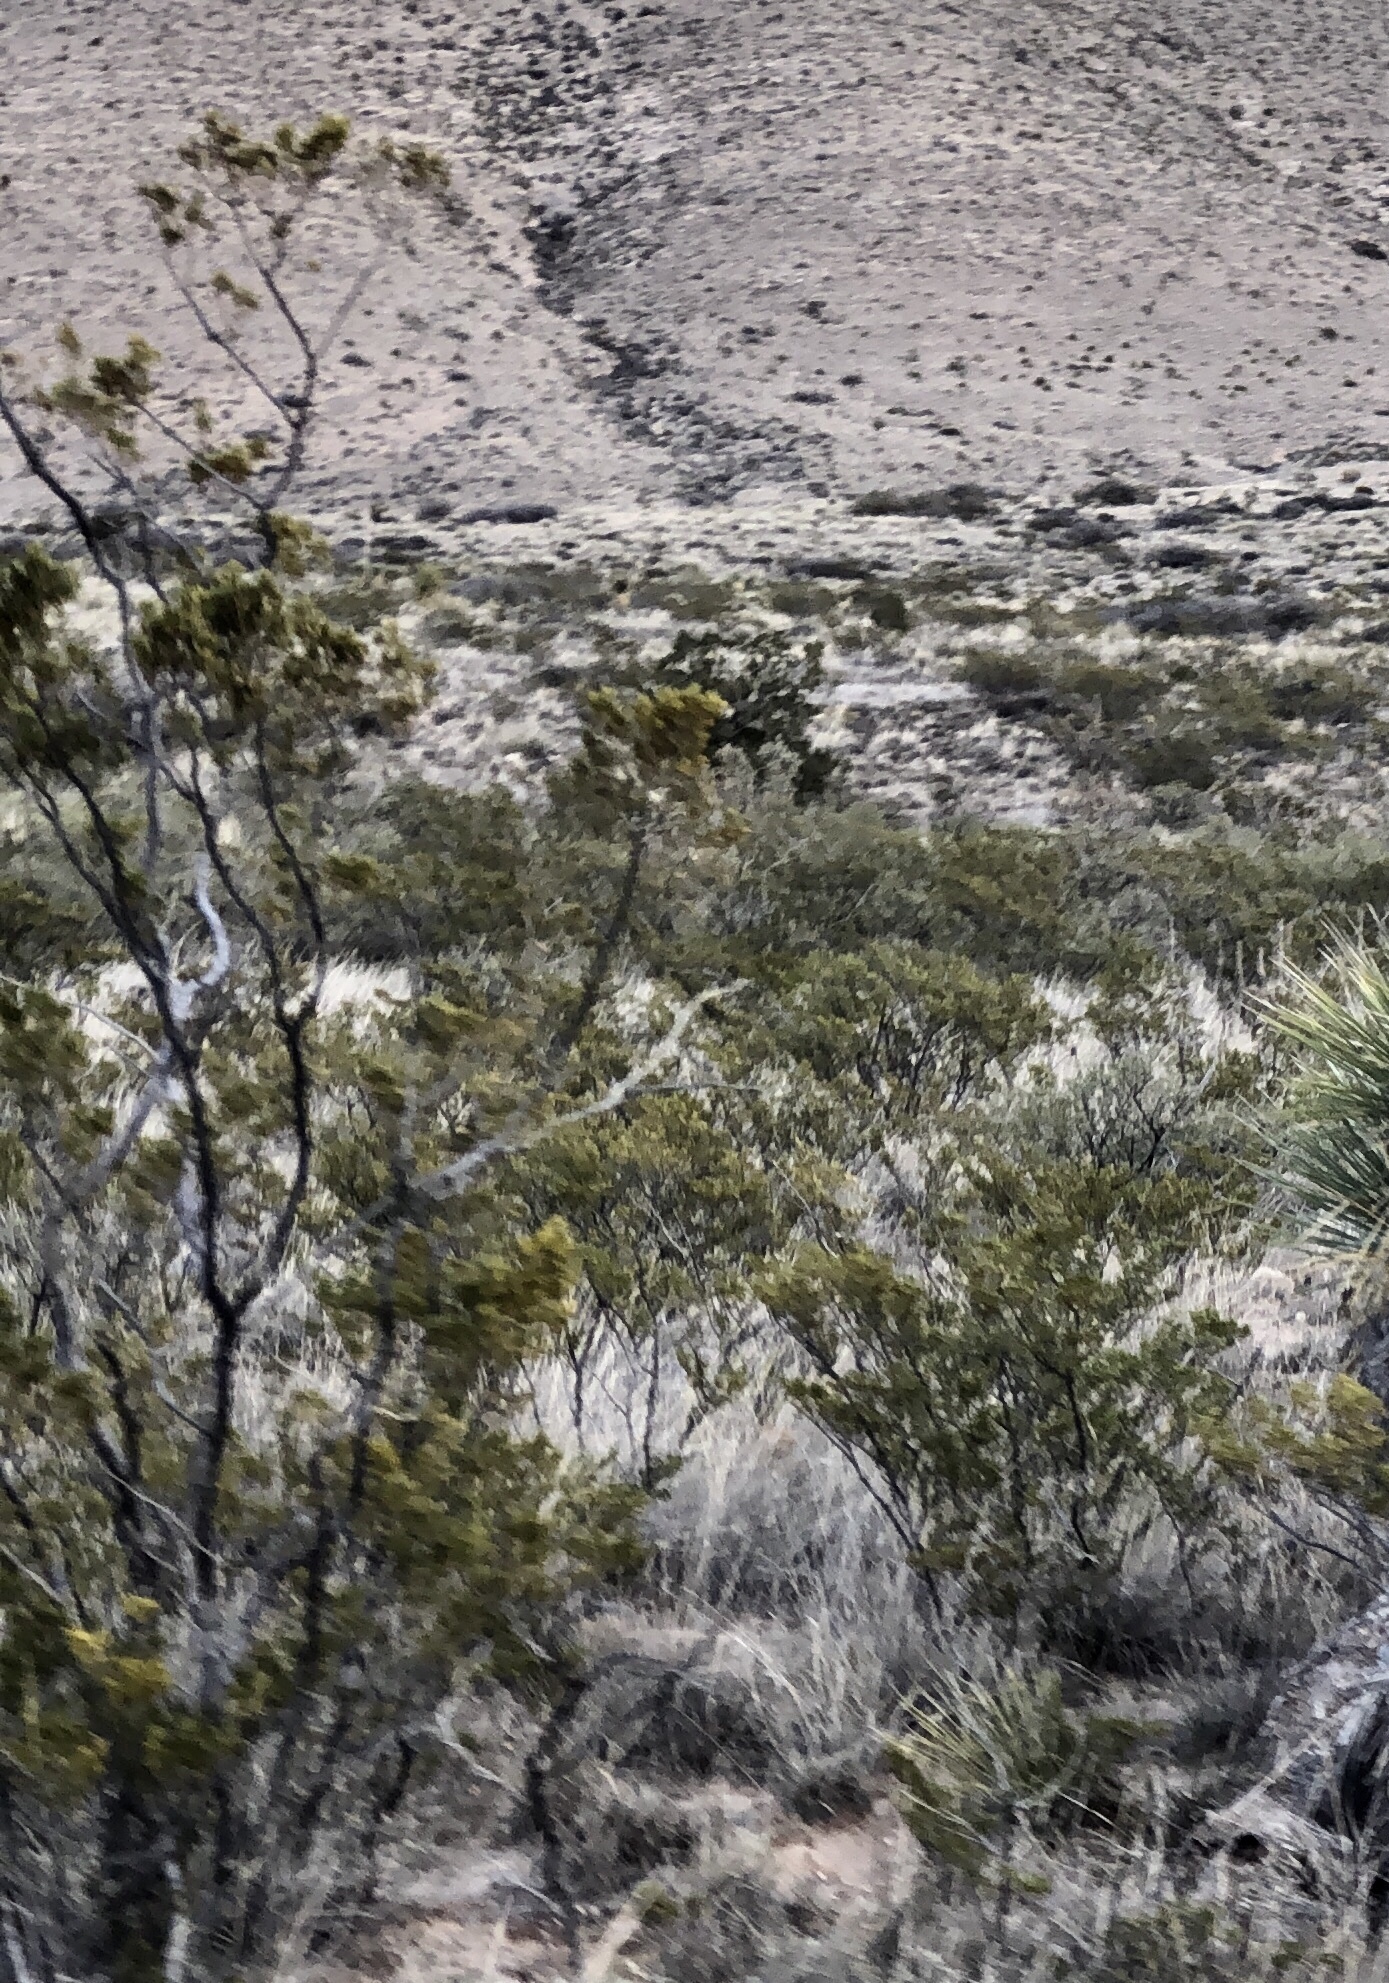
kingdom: Plantae
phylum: Tracheophyta
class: Magnoliopsida
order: Zygophyllales
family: Zygophyllaceae
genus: Larrea
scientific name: Larrea tridentata
